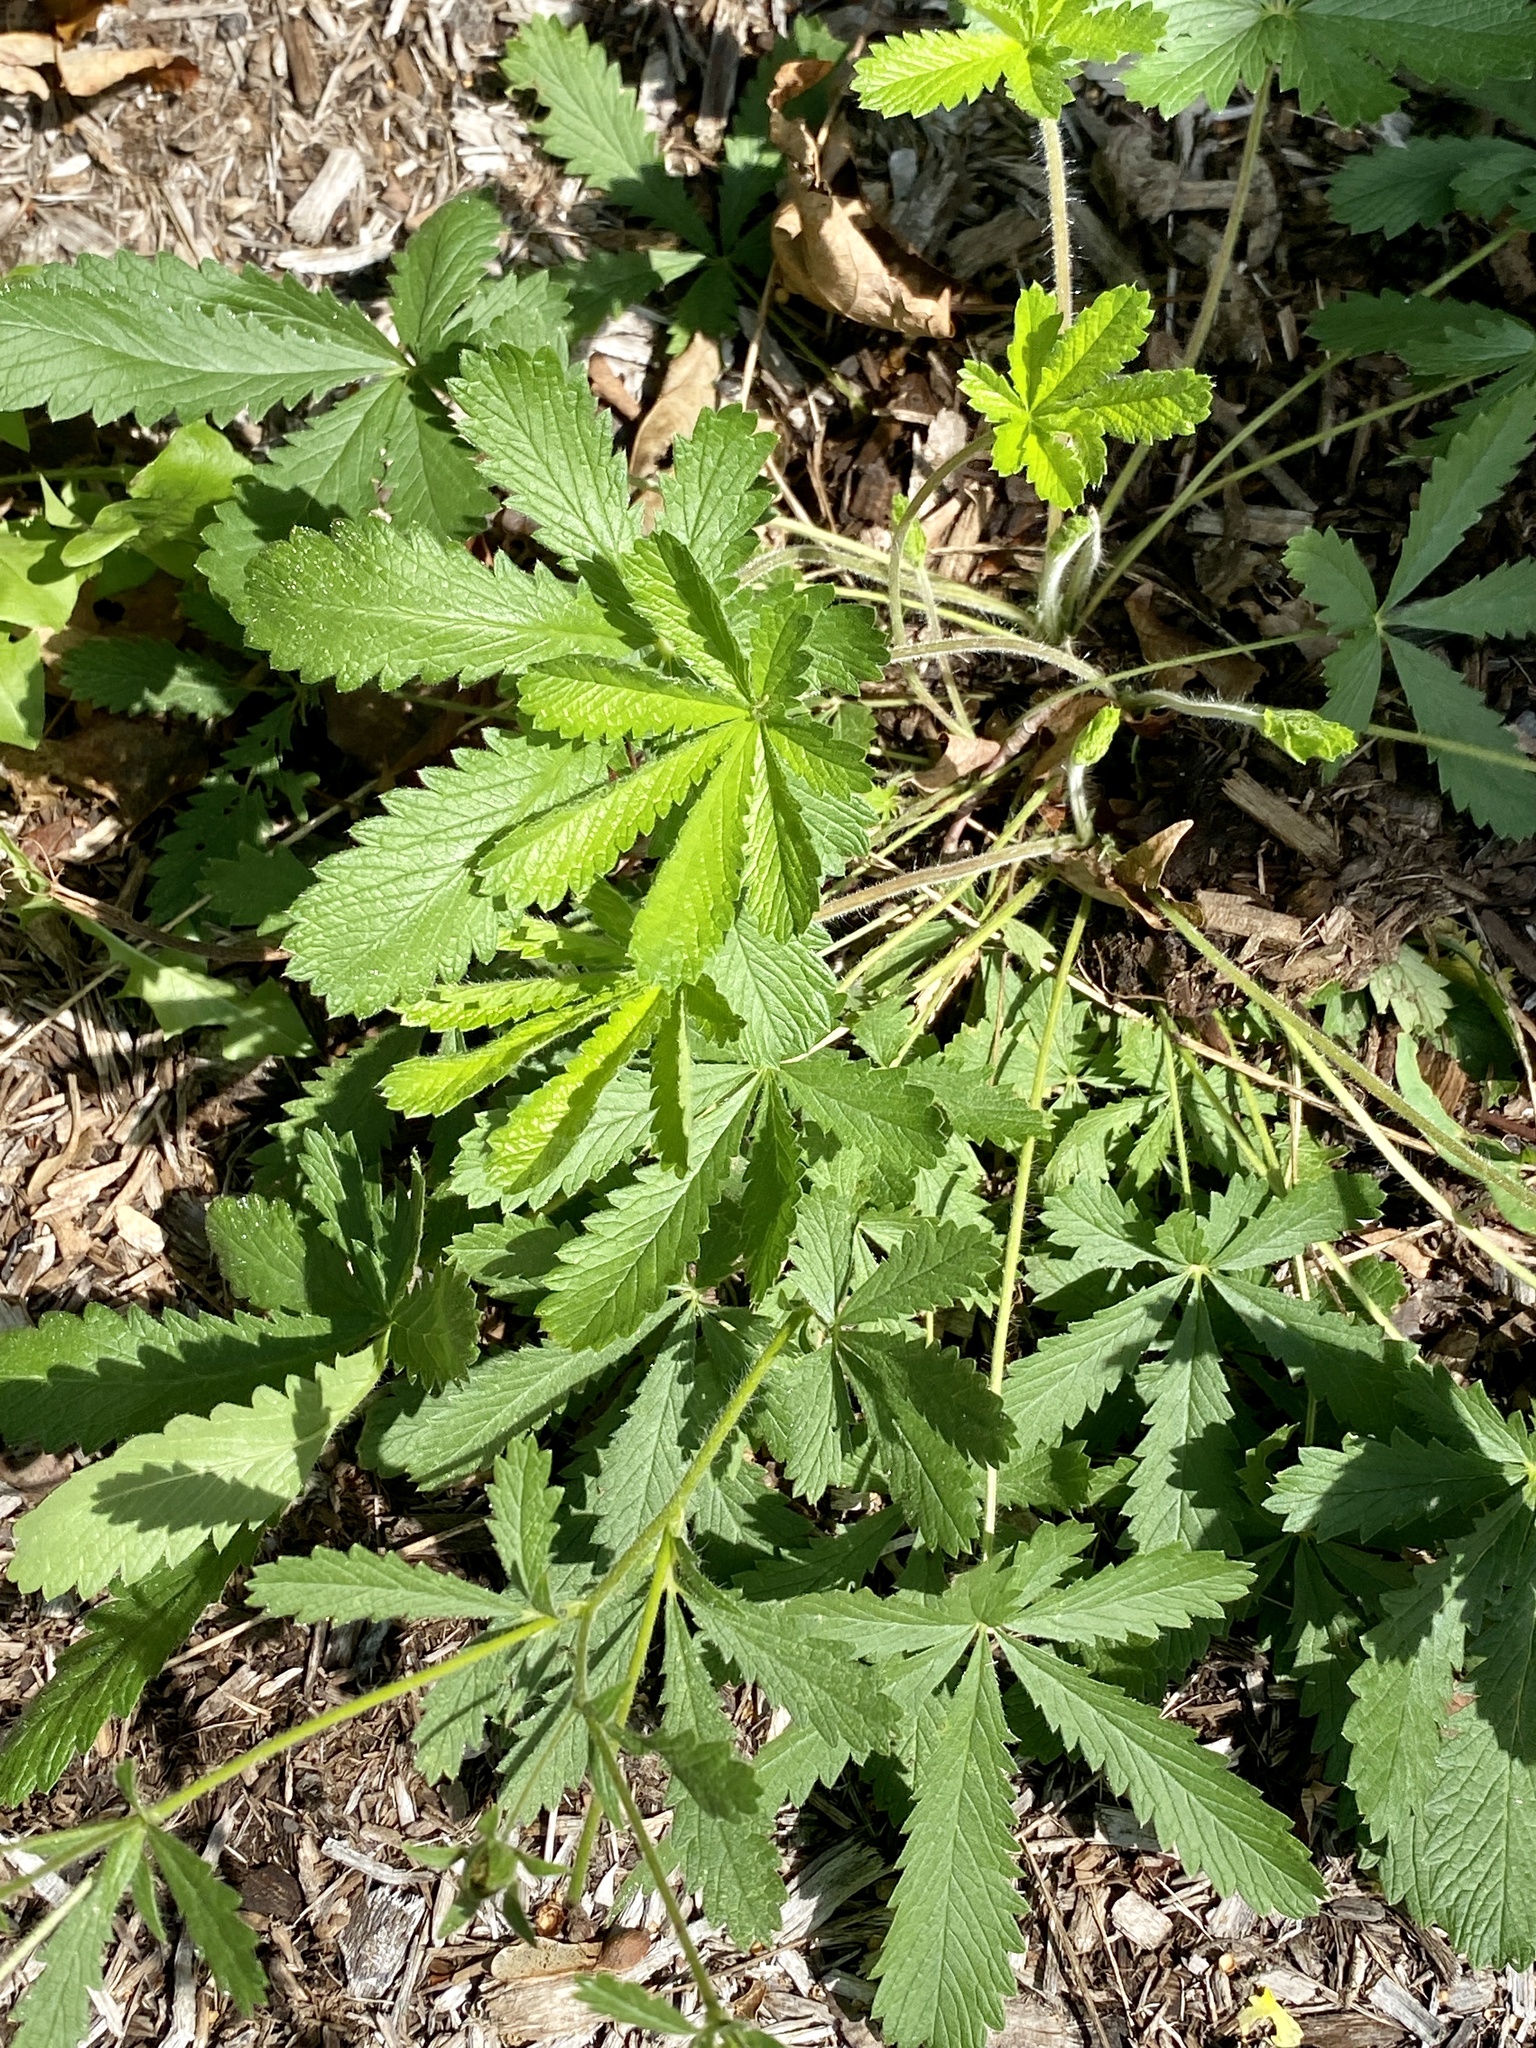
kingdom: Plantae
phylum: Tracheophyta
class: Magnoliopsida
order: Rosales
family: Rosaceae
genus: Potentilla
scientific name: Potentilla recta
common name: Sulphur cinquefoil
